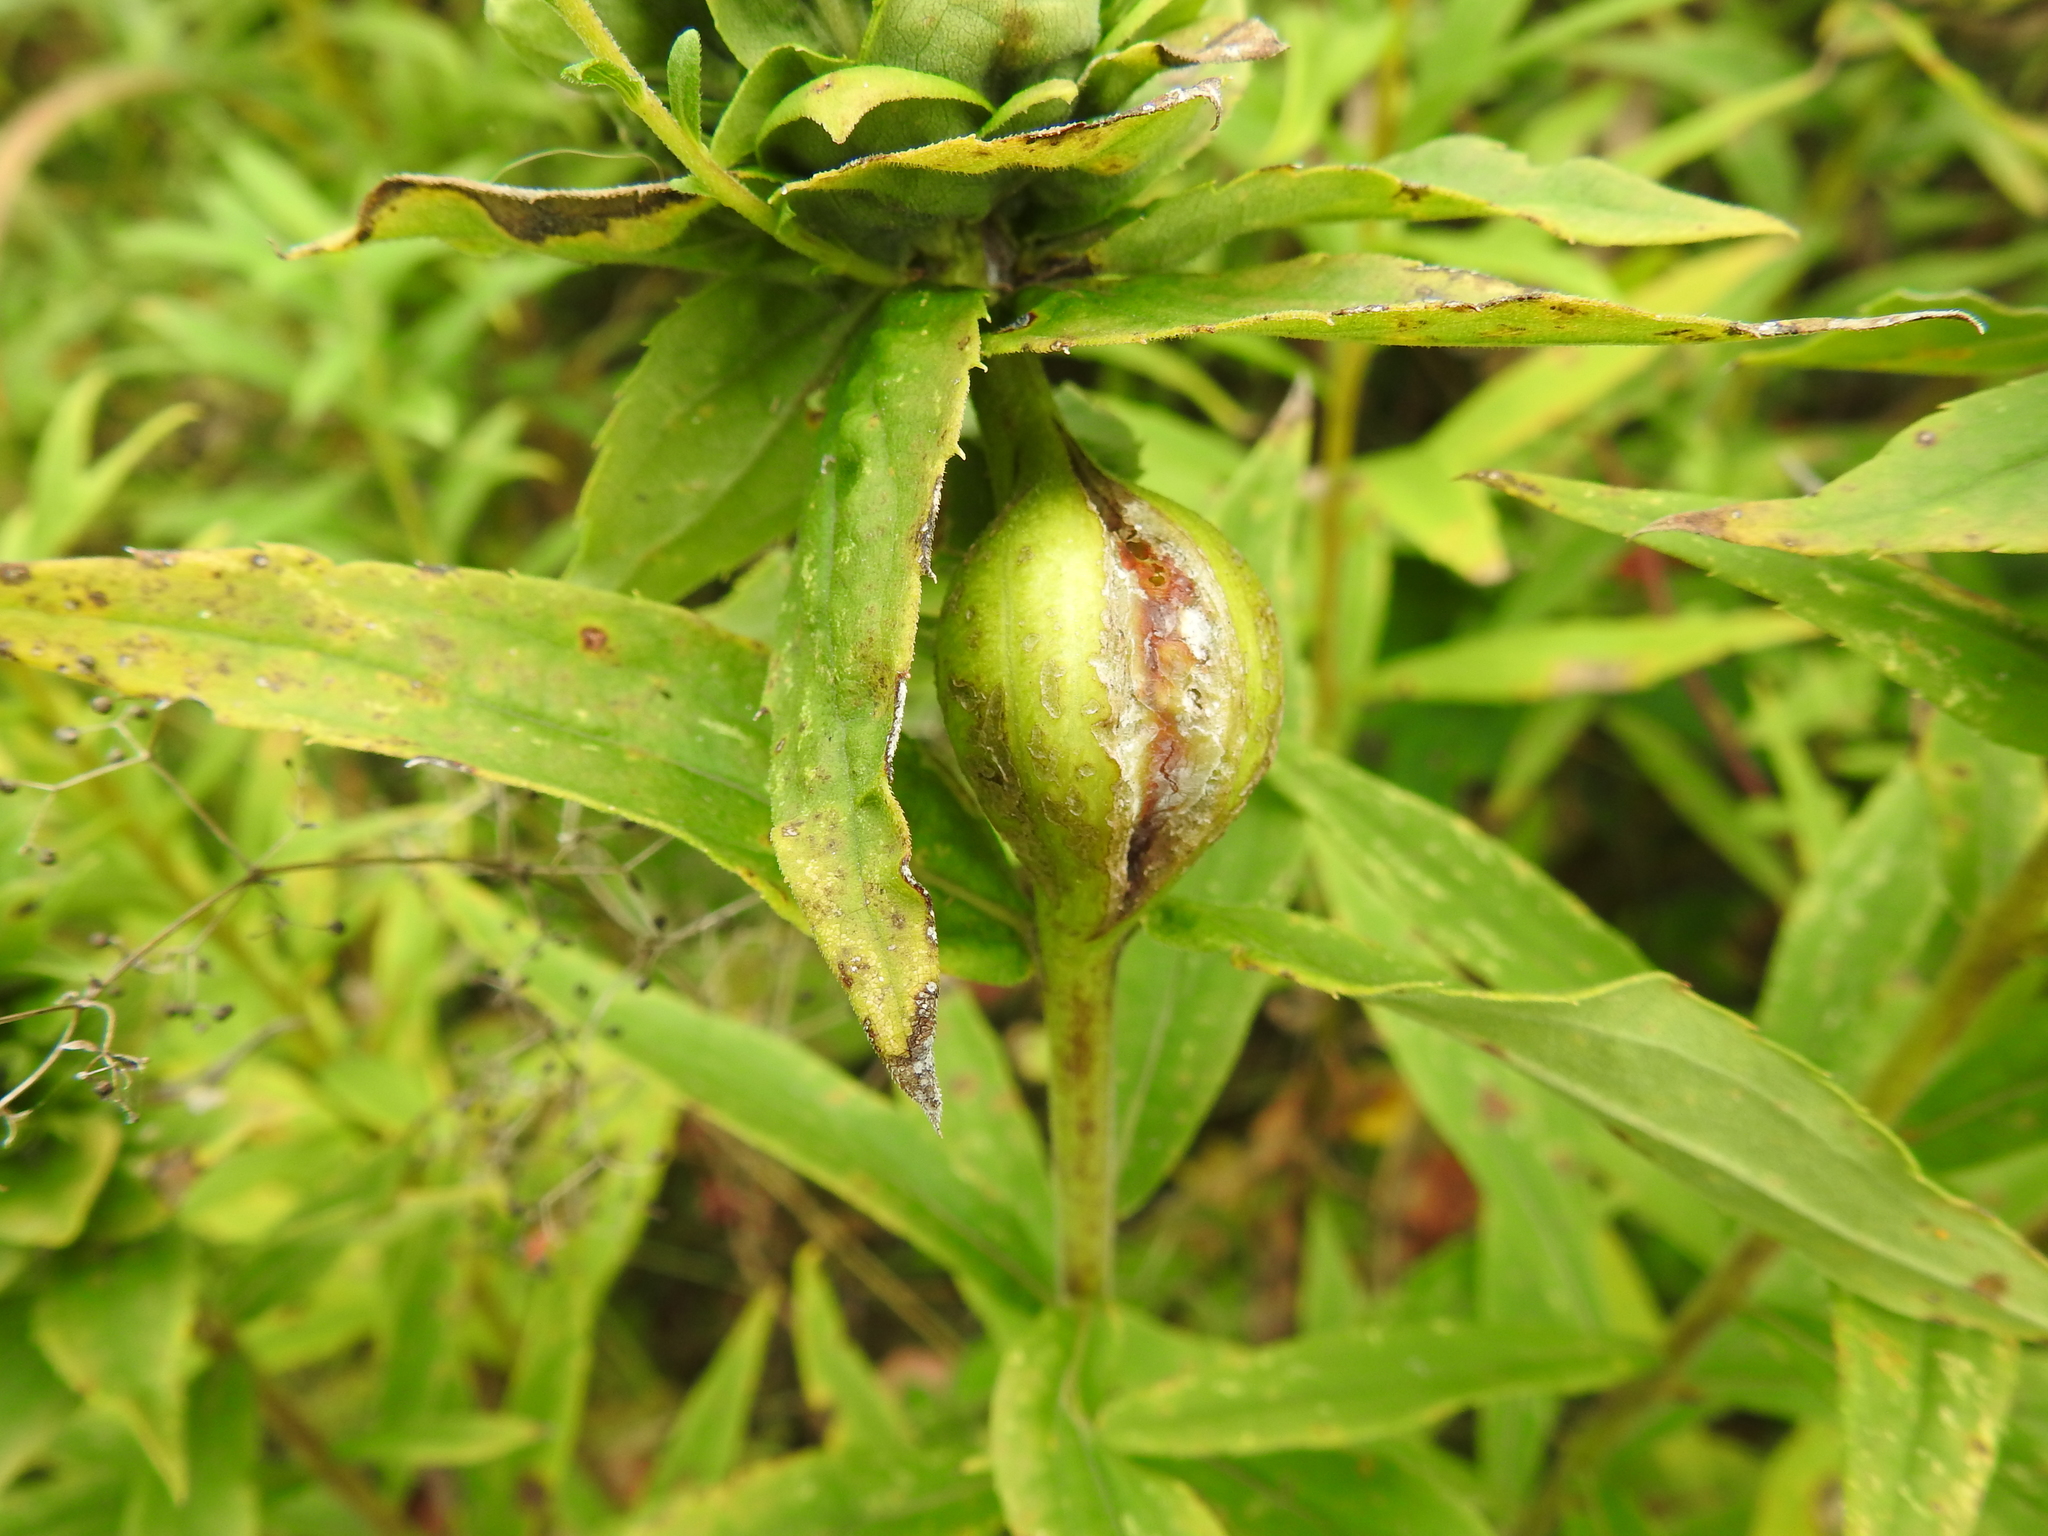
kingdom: Animalia
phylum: Arthropoda
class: Insecta
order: Diptera
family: Tephritidae
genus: Eurosta
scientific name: Eurosta solidaginis
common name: Goldenrod gall fly
